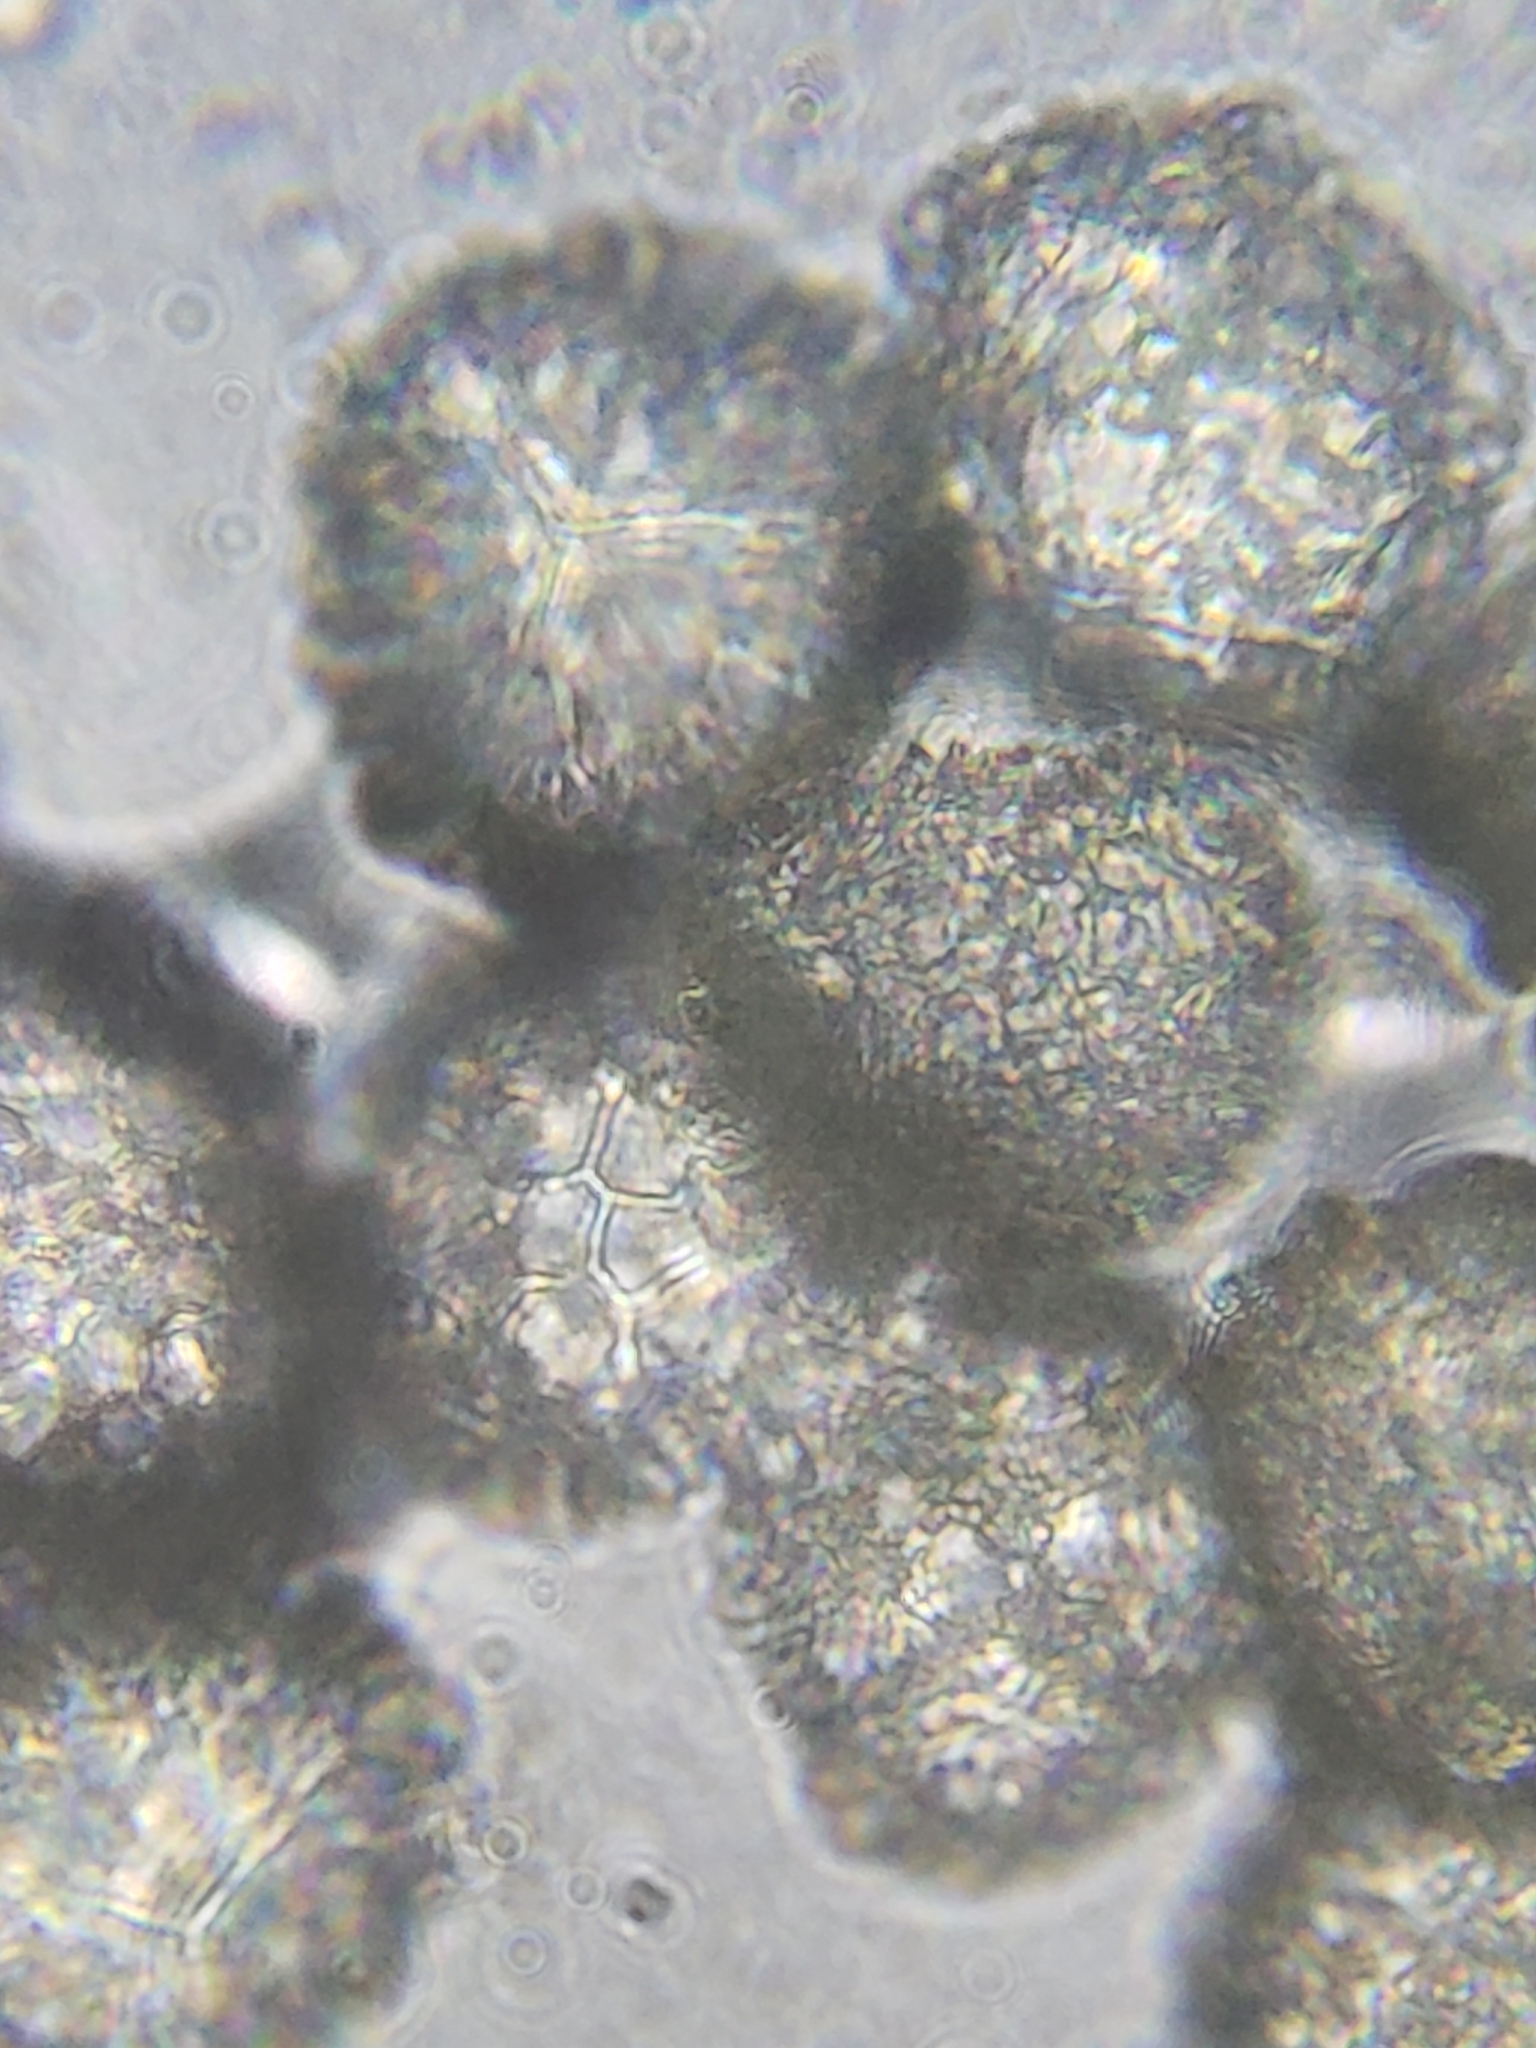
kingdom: Plantae
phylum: Tracheophyta
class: Lycopodiopsida
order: Lycopodiales
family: Lycopodiaceae
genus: Dendrolycopodium
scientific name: Dendrolycopodium obscurum
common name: Common ground-pine
